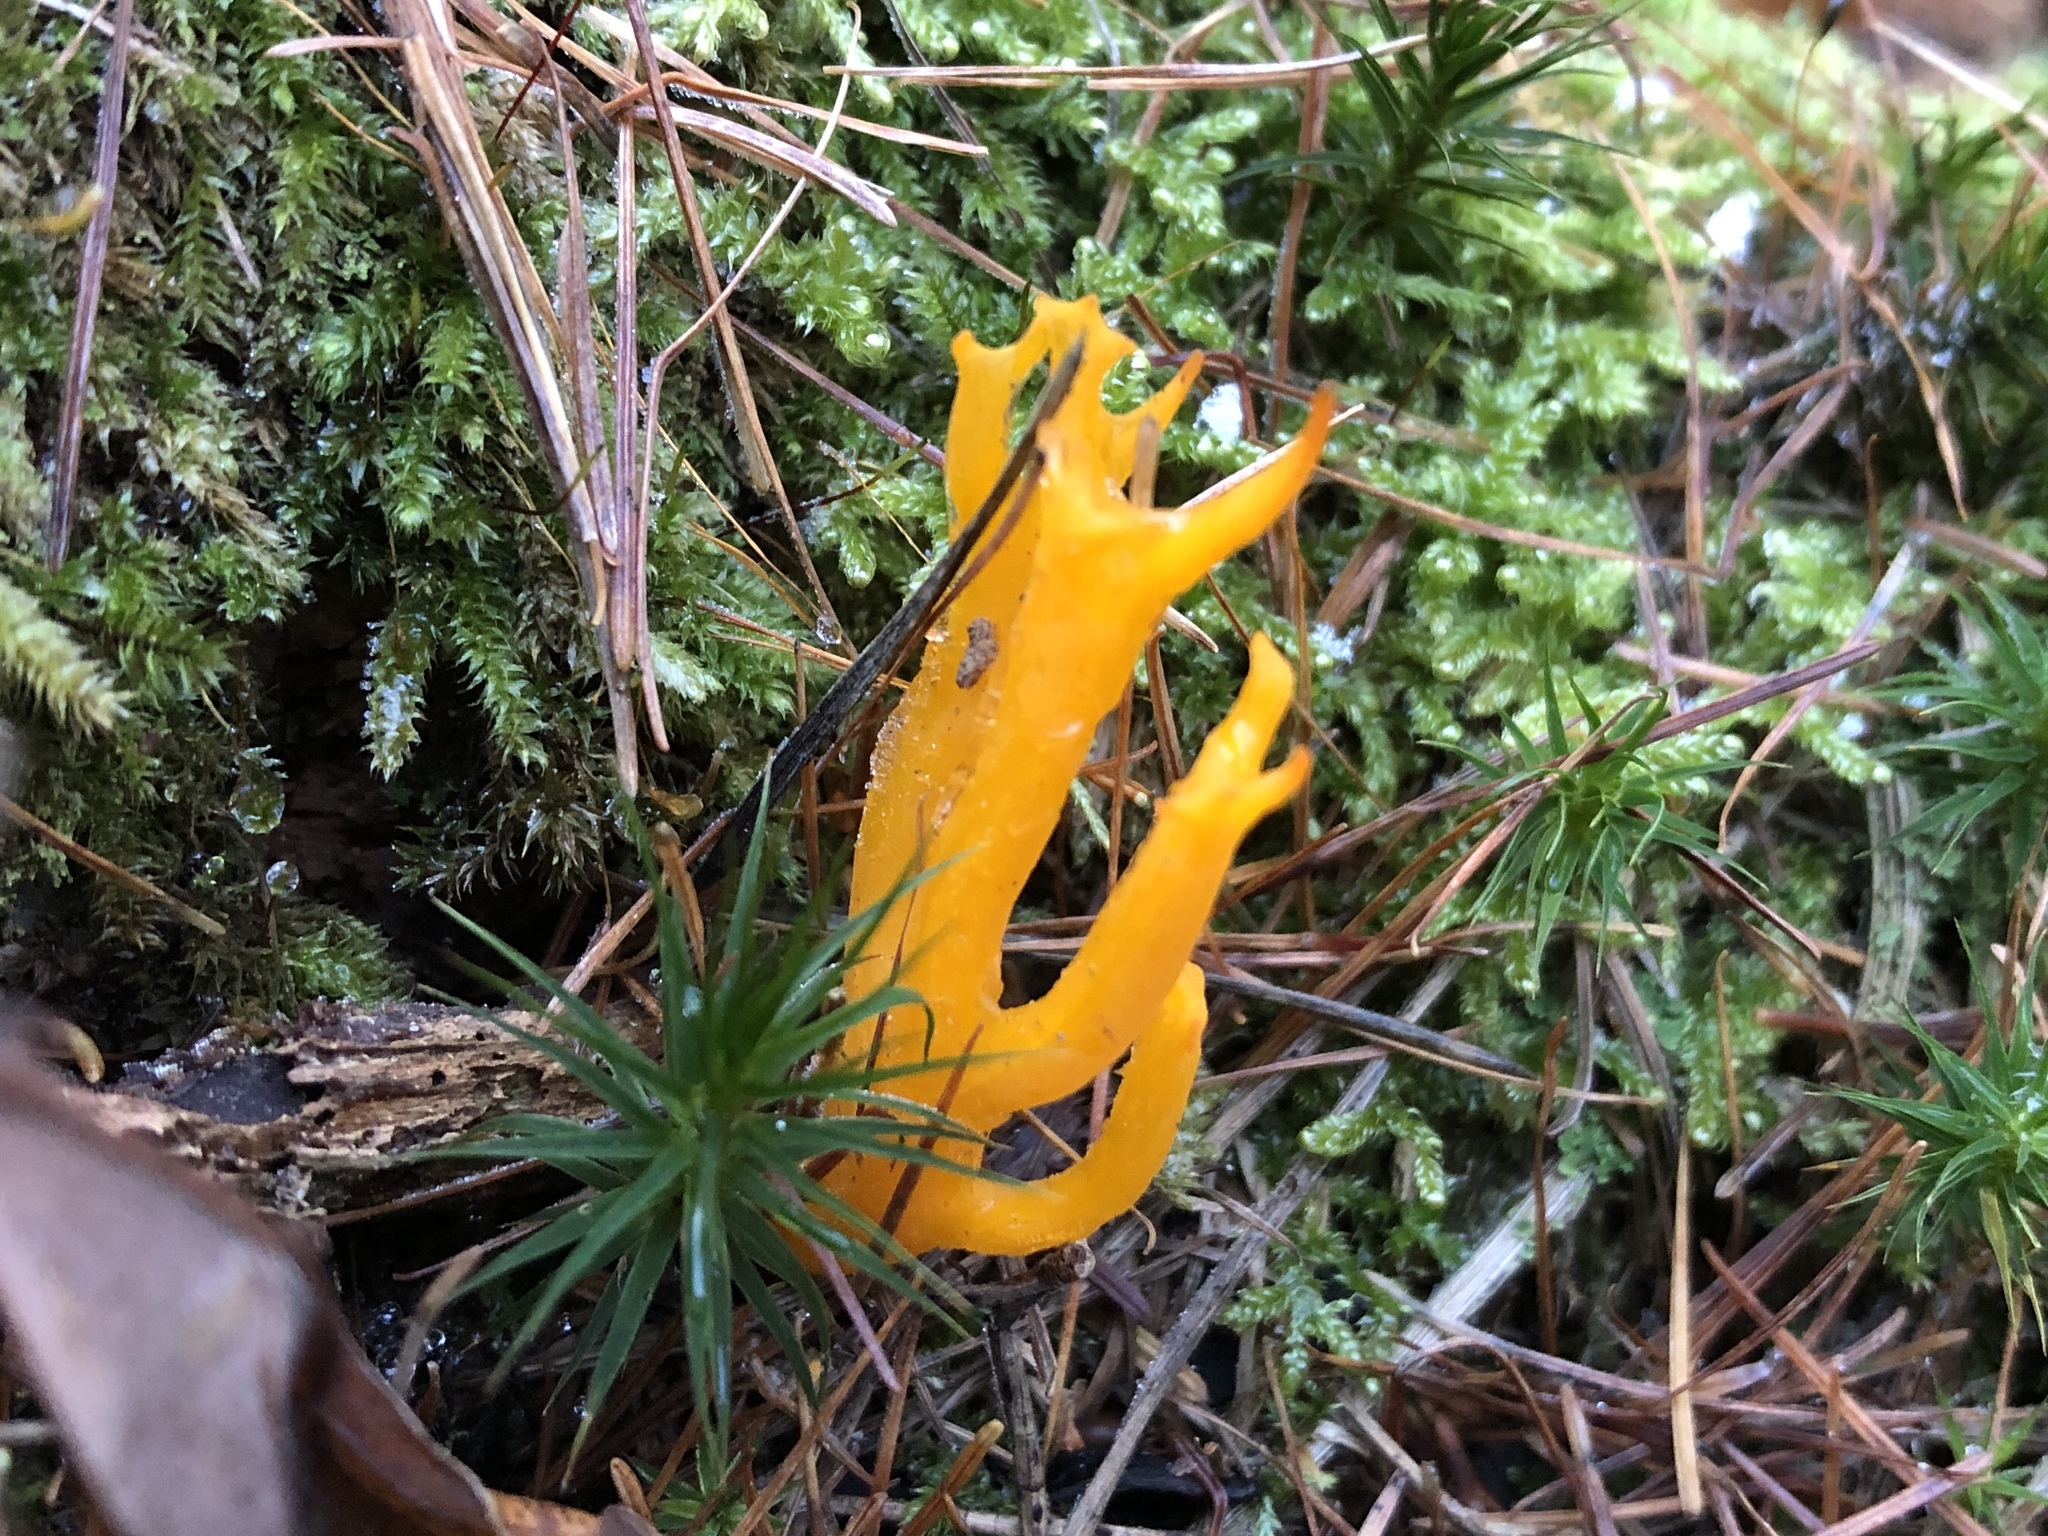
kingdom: Fungi
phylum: Basidiomycota
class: Dacrymycetes
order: Dacrymycetales
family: Dacrymycetaceae
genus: Calocera
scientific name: Calocera viscosa
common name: Yellow stagshorn
